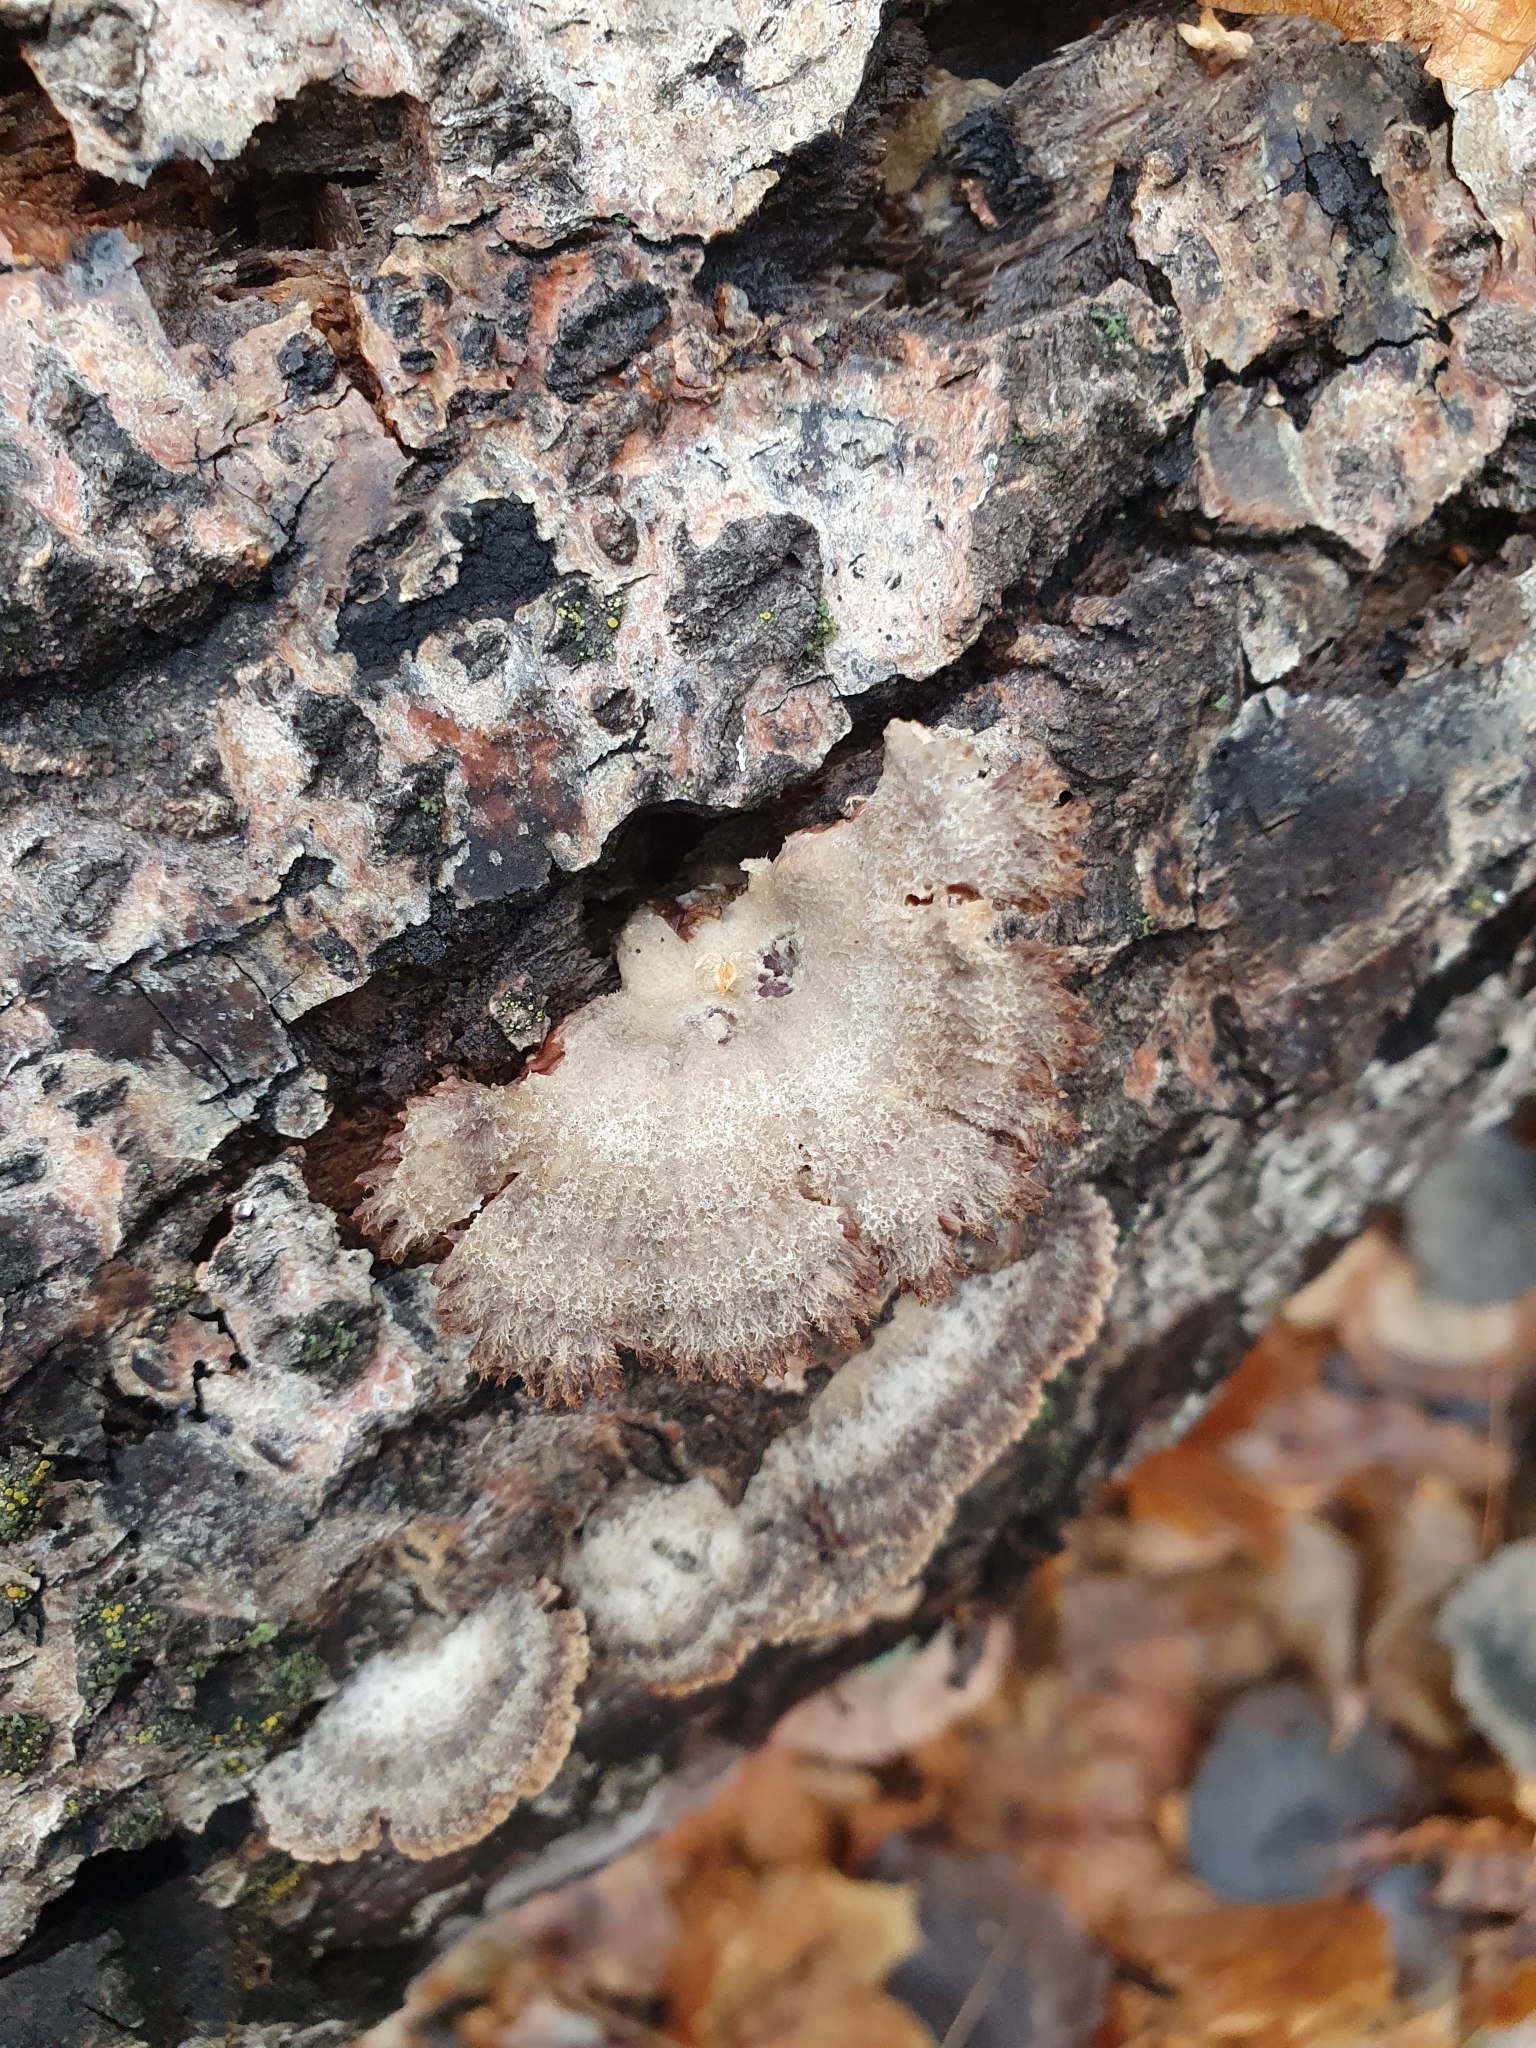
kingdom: Fungi
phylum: Basidiomycota
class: Agaricomycetes
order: Agaricales
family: Schizophyllaceae
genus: Schizophyllum
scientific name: Schizophyllum commune
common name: Common porecrust
